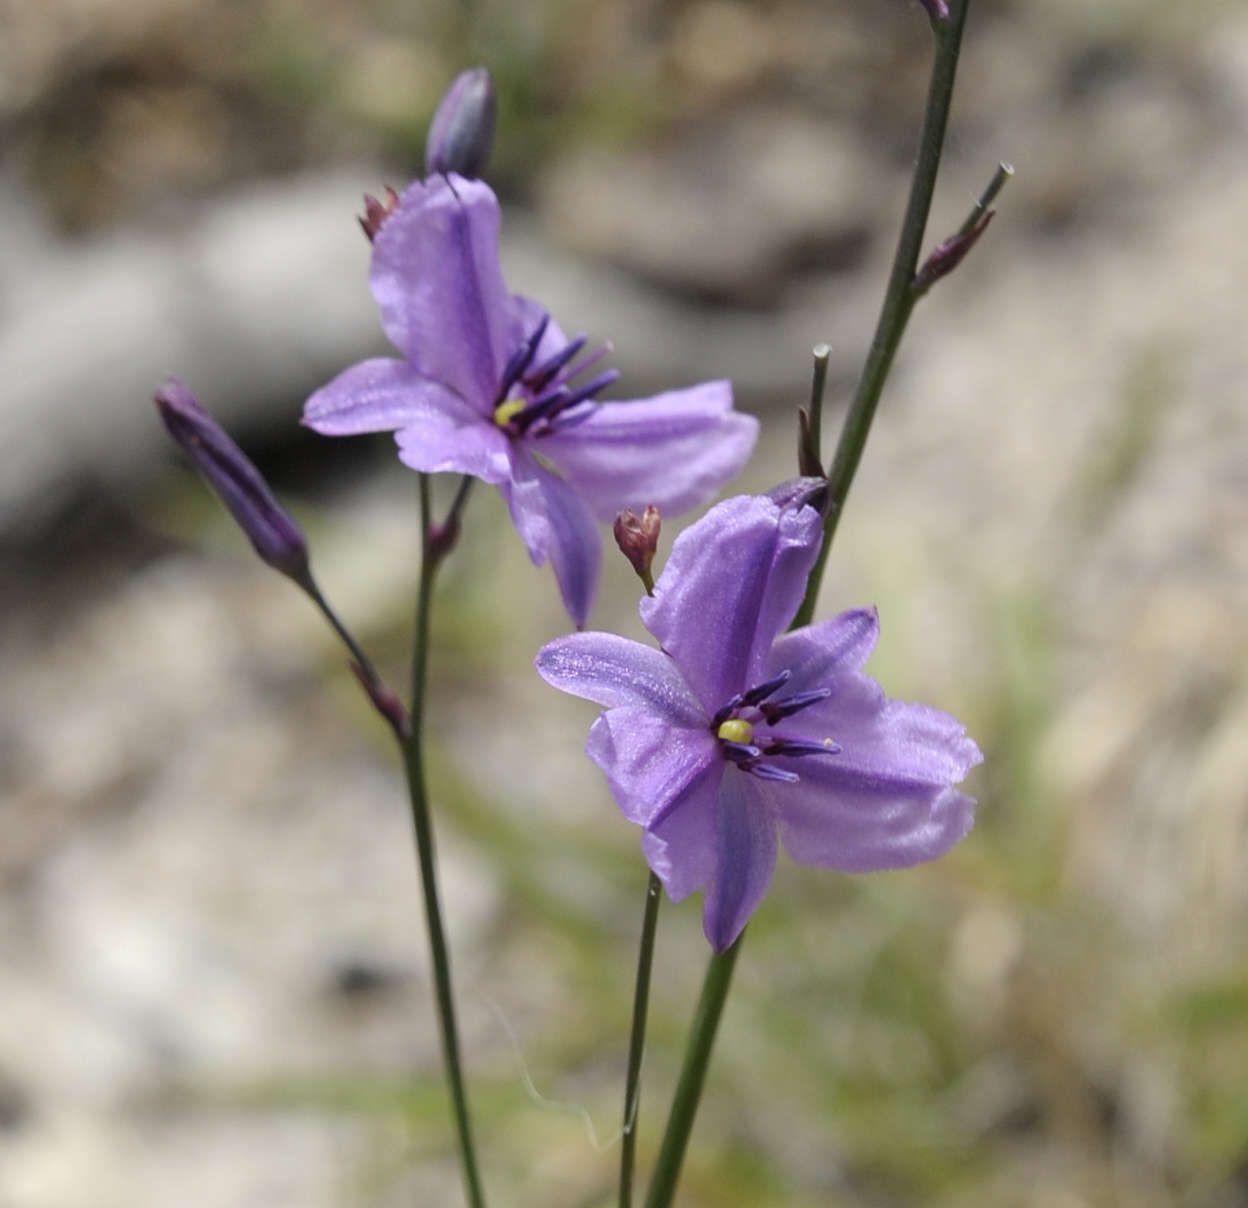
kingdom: Plantae
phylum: Tracheophyta
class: Liliopsida
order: Asparagales
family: Asparagaceae
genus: Arthropodium
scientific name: Arthropodium strictum
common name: Chocolate-lily
